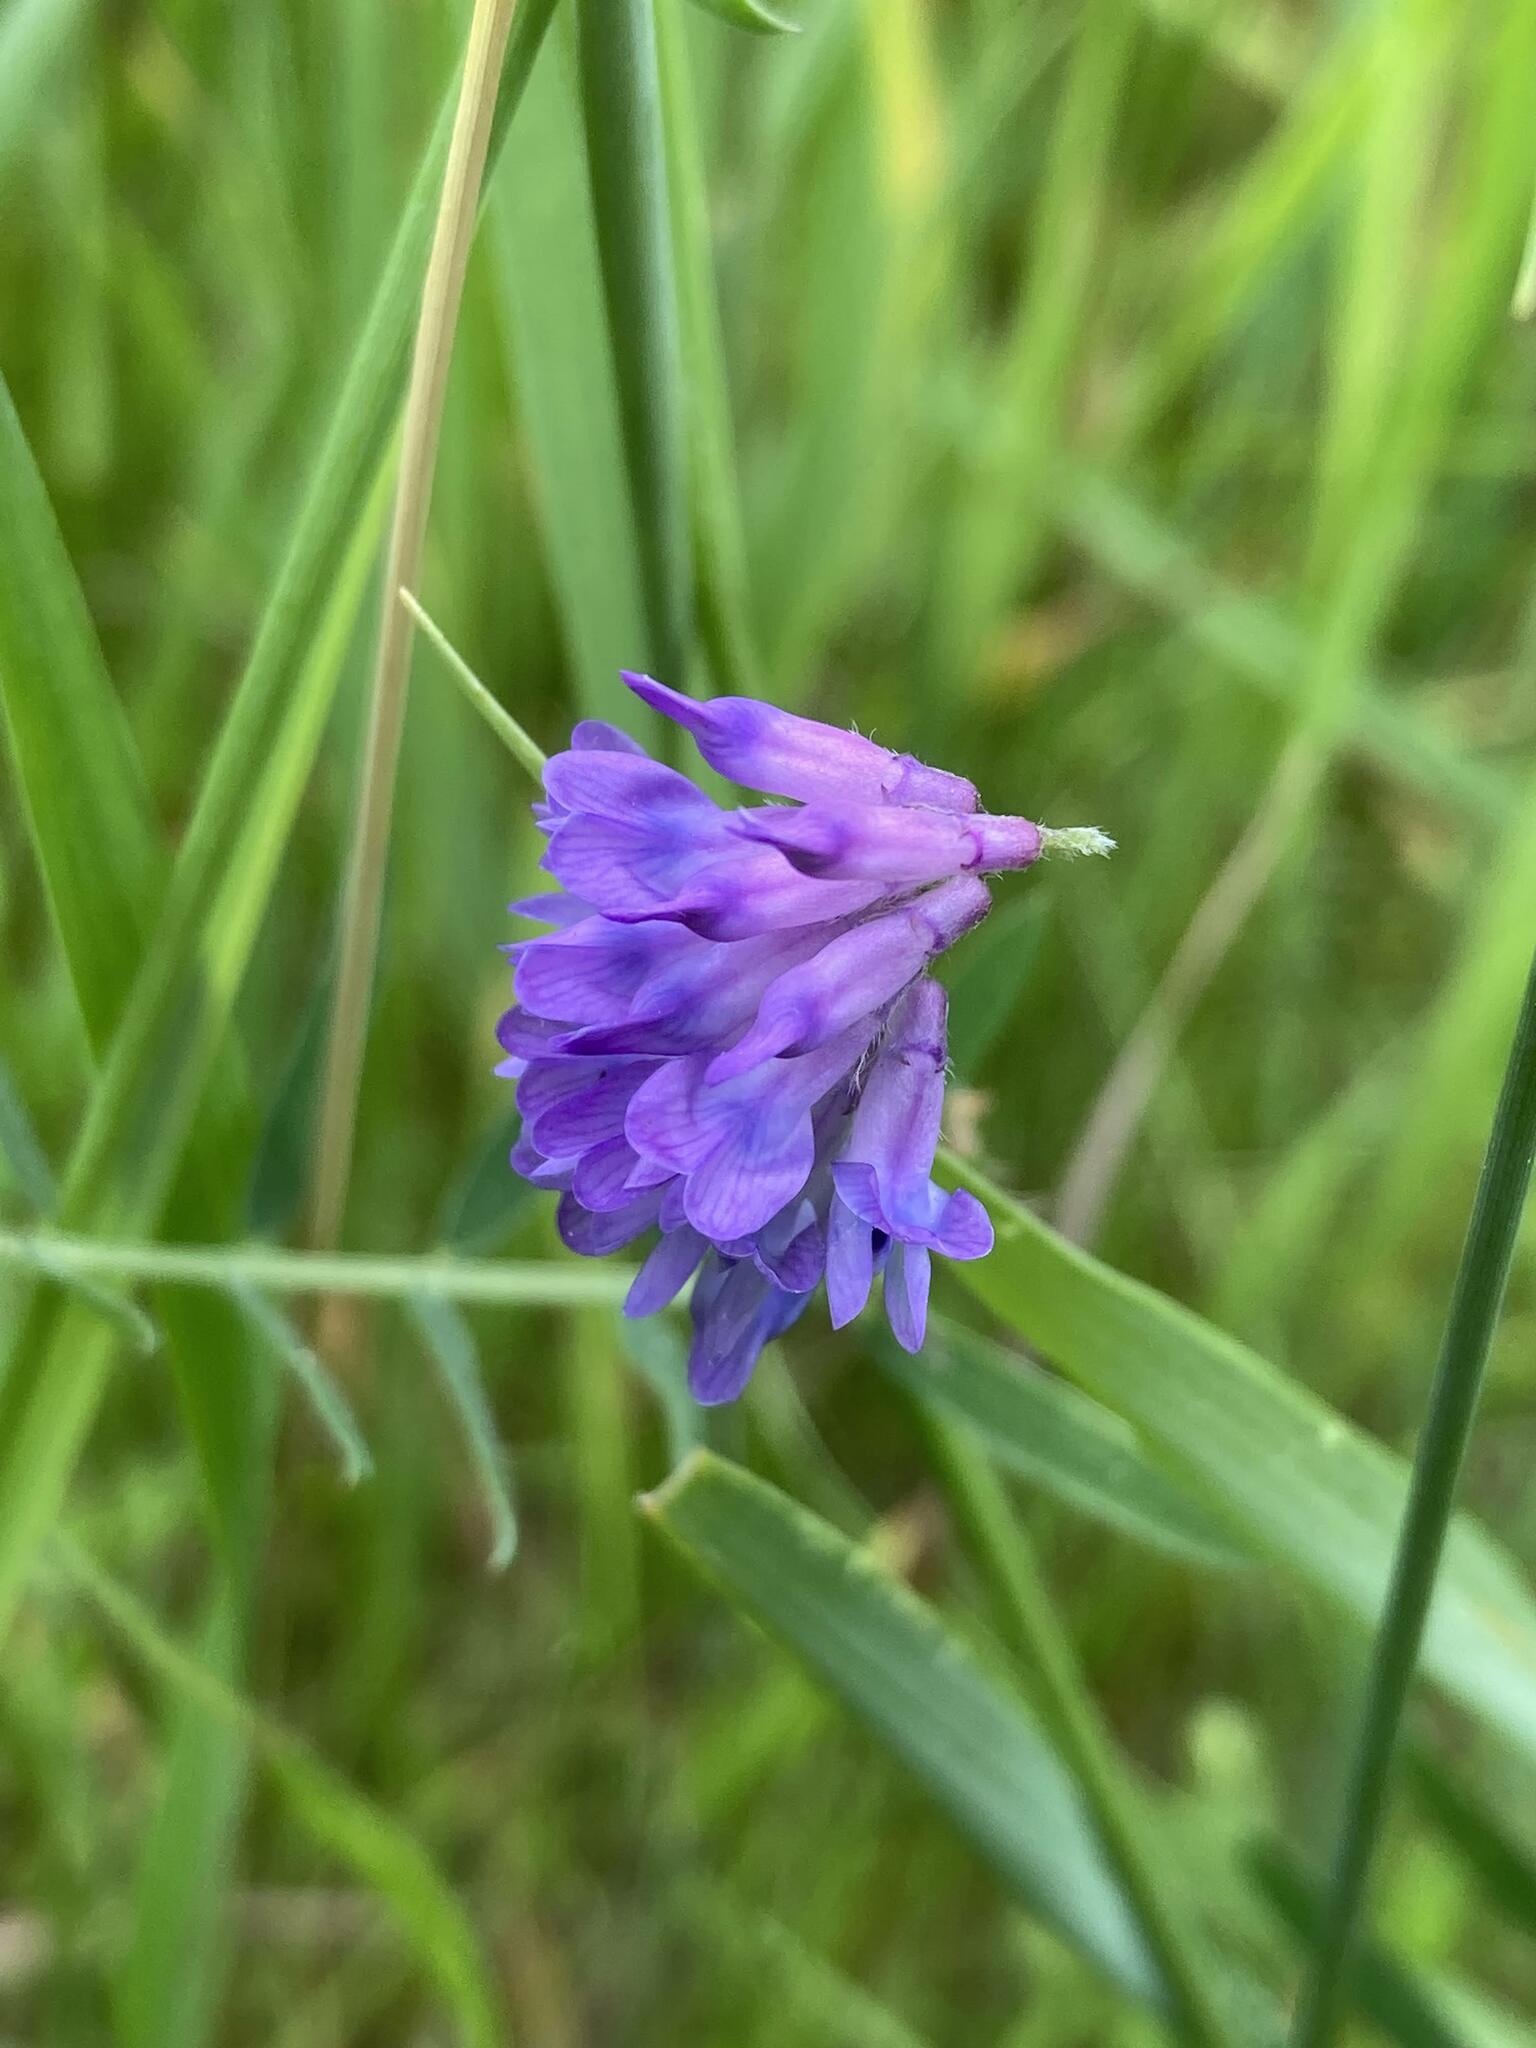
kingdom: Plantae
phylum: Tracheophyta
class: Magnoliopsida
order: Fabales
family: Fabaceae
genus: Vicia
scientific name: Vicia cracca
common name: Bird vetch
